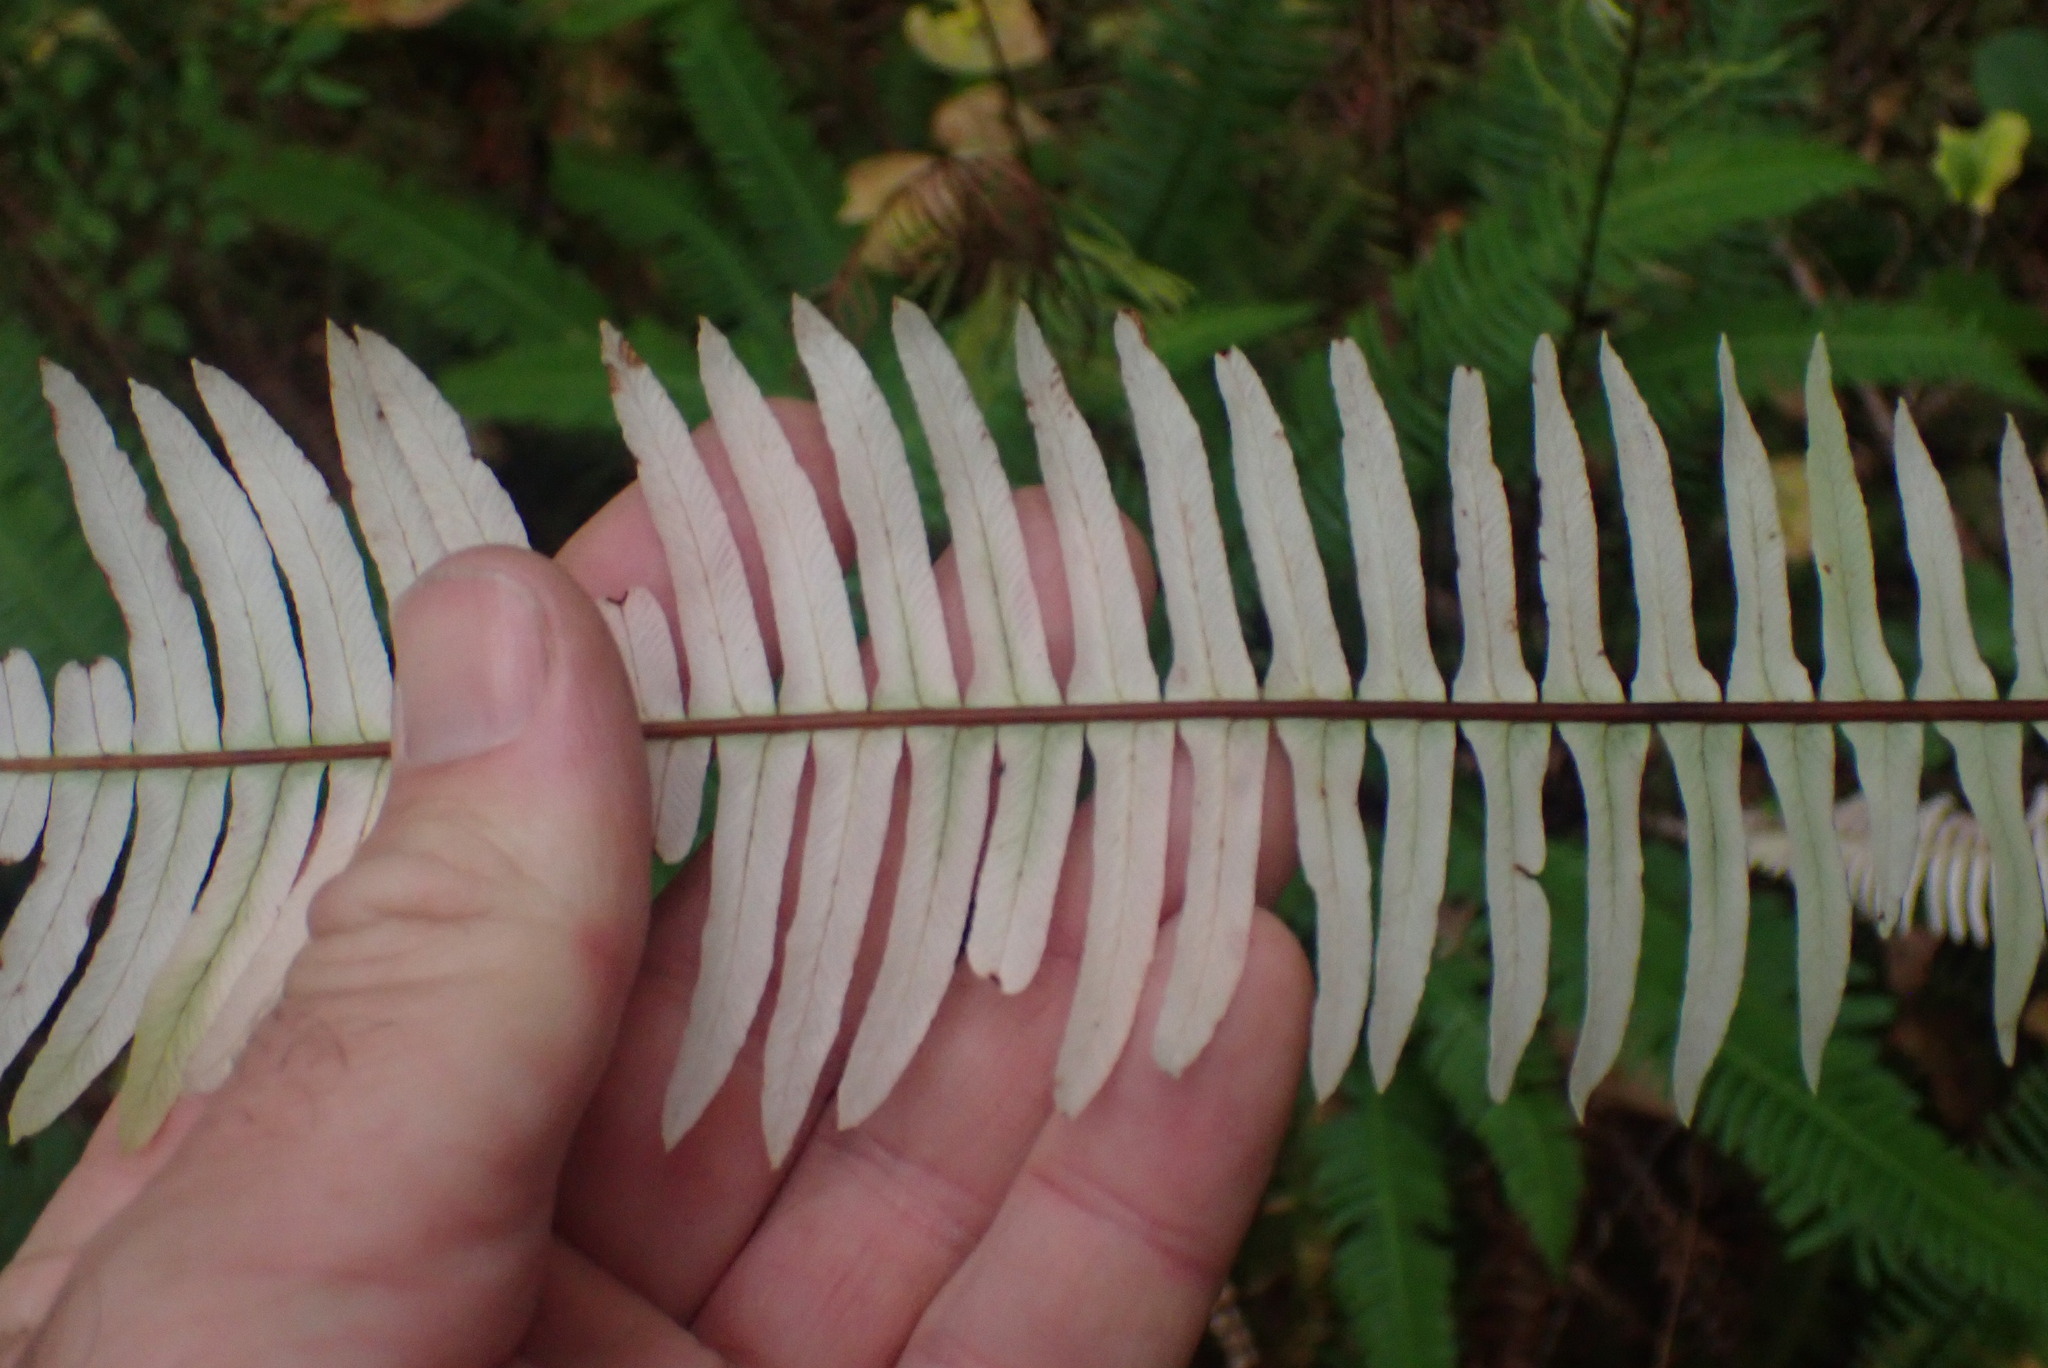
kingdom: Plantae
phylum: Tracheophyta
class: Polypodiopsida
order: Polypodiales
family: Blechnaceae
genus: Struthiopteris
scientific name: Struthiopteris spicant
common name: Deer fern
